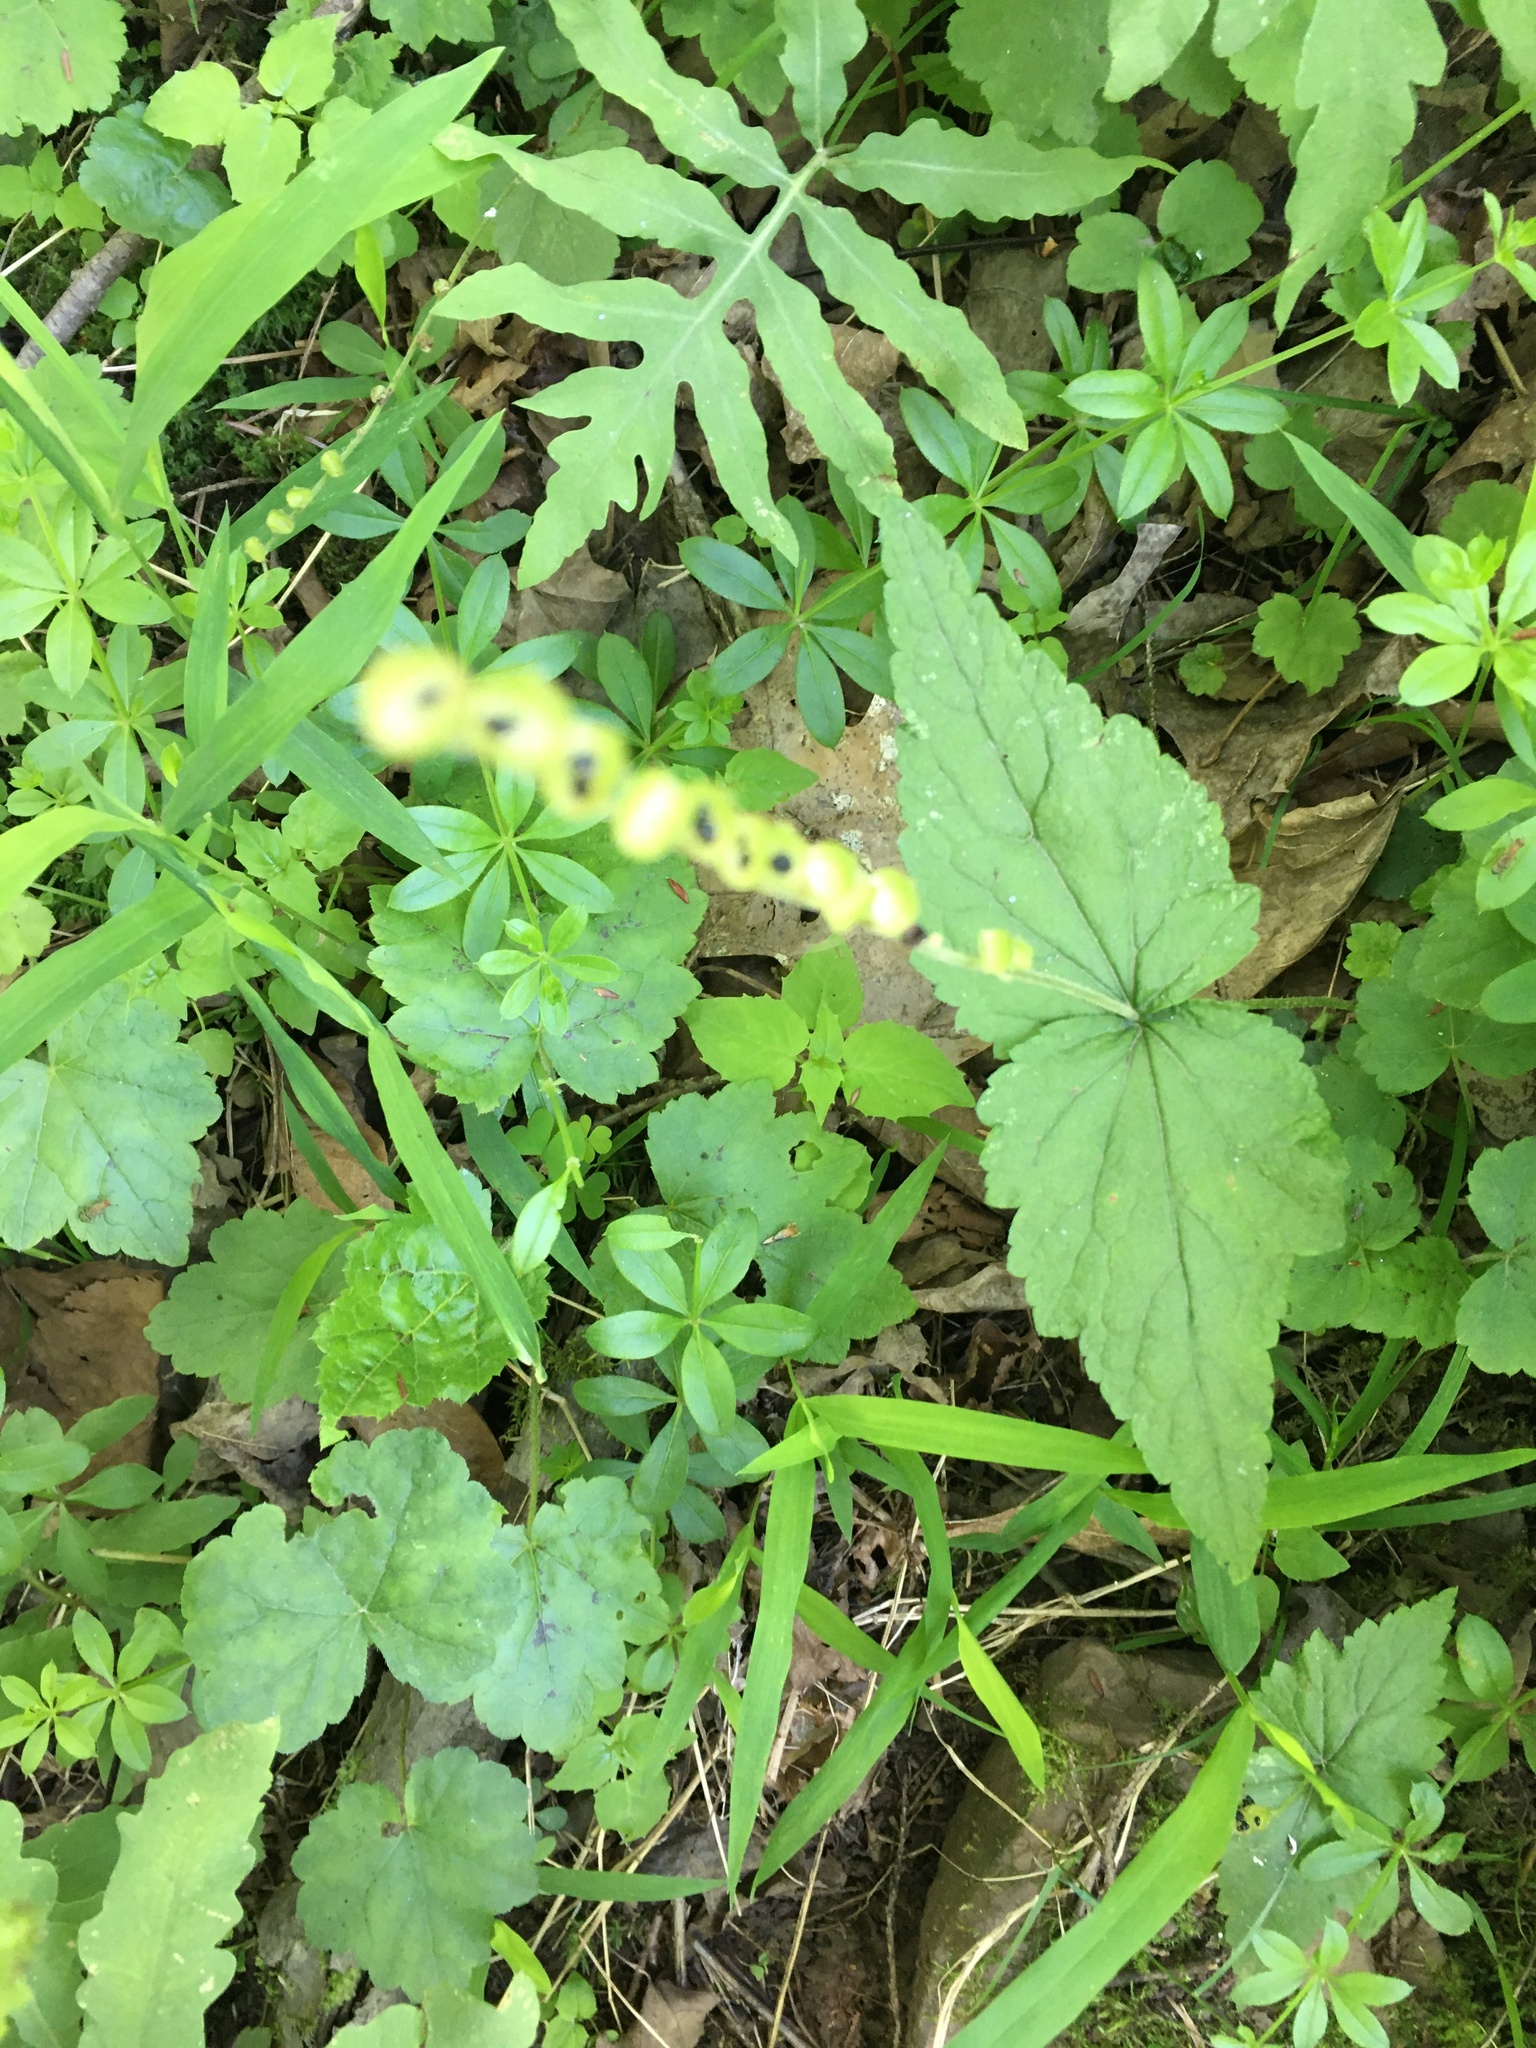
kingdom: Plantae
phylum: Tracheophyta
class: Magnoliopsida
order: Saxifragales
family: Saxifragaceae
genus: Mitella
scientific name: Mitella diphylla
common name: Coolwort
